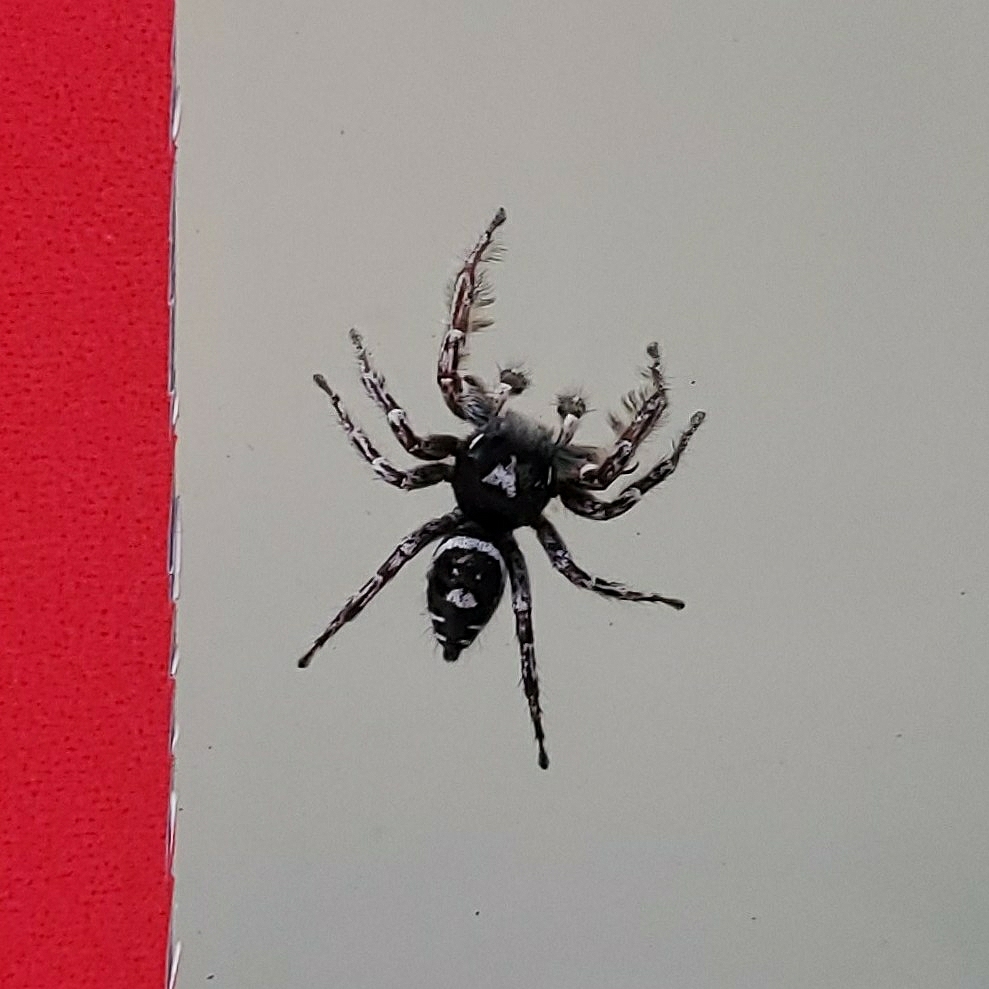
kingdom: Animalia
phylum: Arthropoda
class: Arachnida
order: Araneae
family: Salticidae
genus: Phidippus
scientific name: Phidippus putnami
